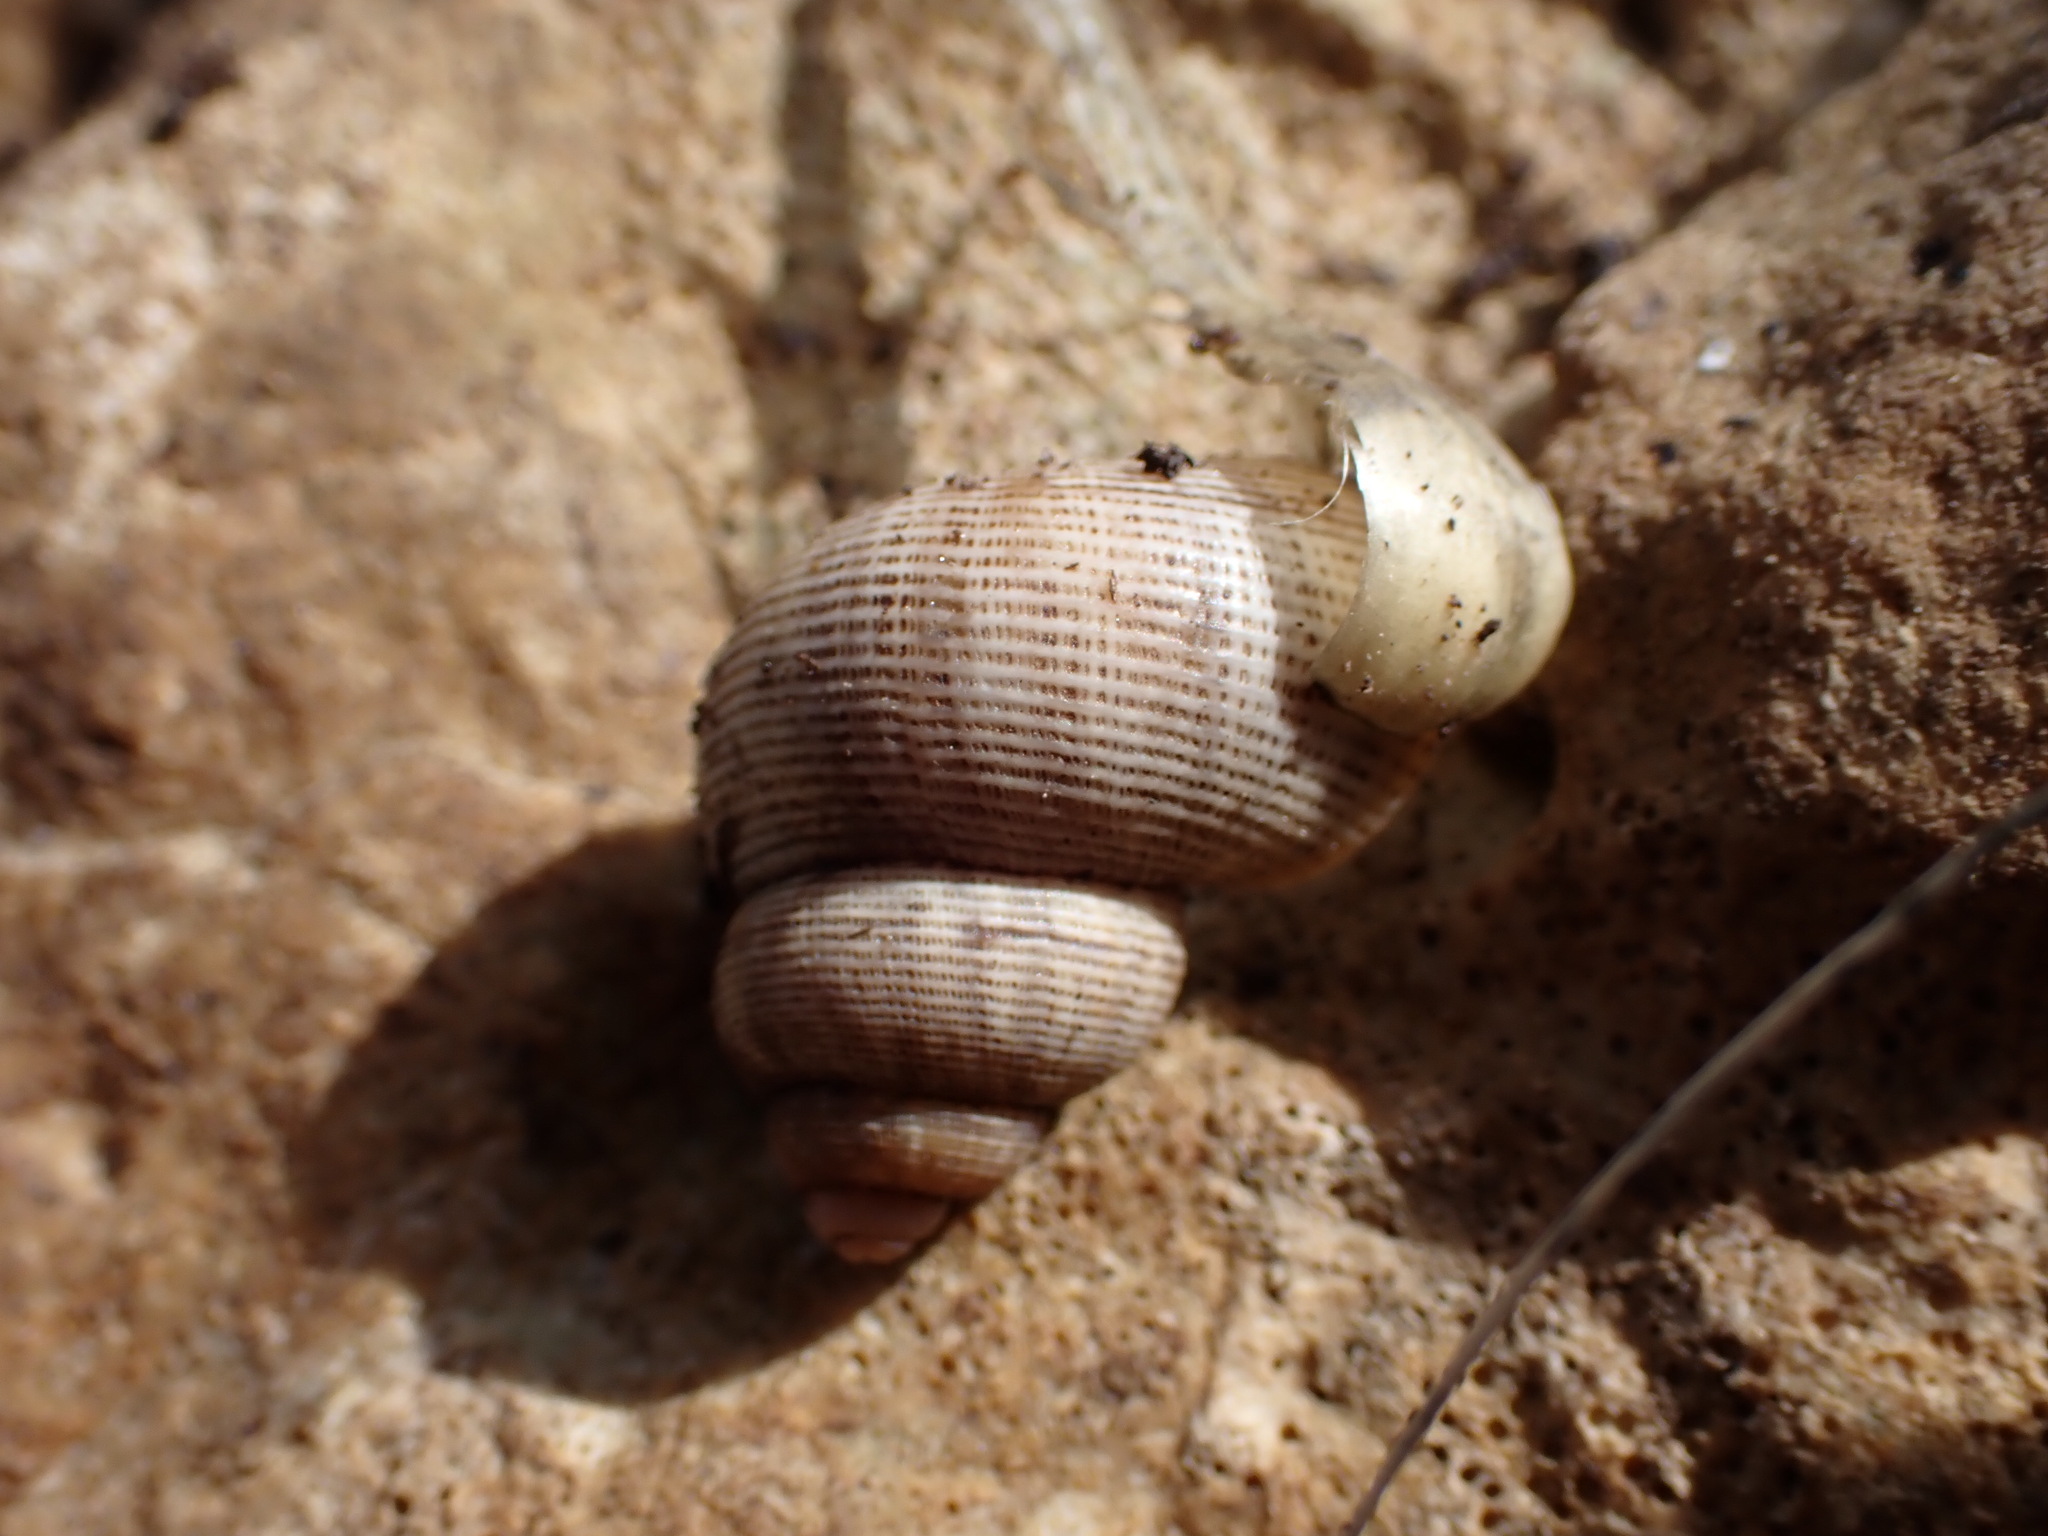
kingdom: Animalia
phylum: Mollusca
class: Gastropoda
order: Littorinimorpha
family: Pomatiidae
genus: Pomatias
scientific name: Pomatias elegans
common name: Red-mouthed snail
